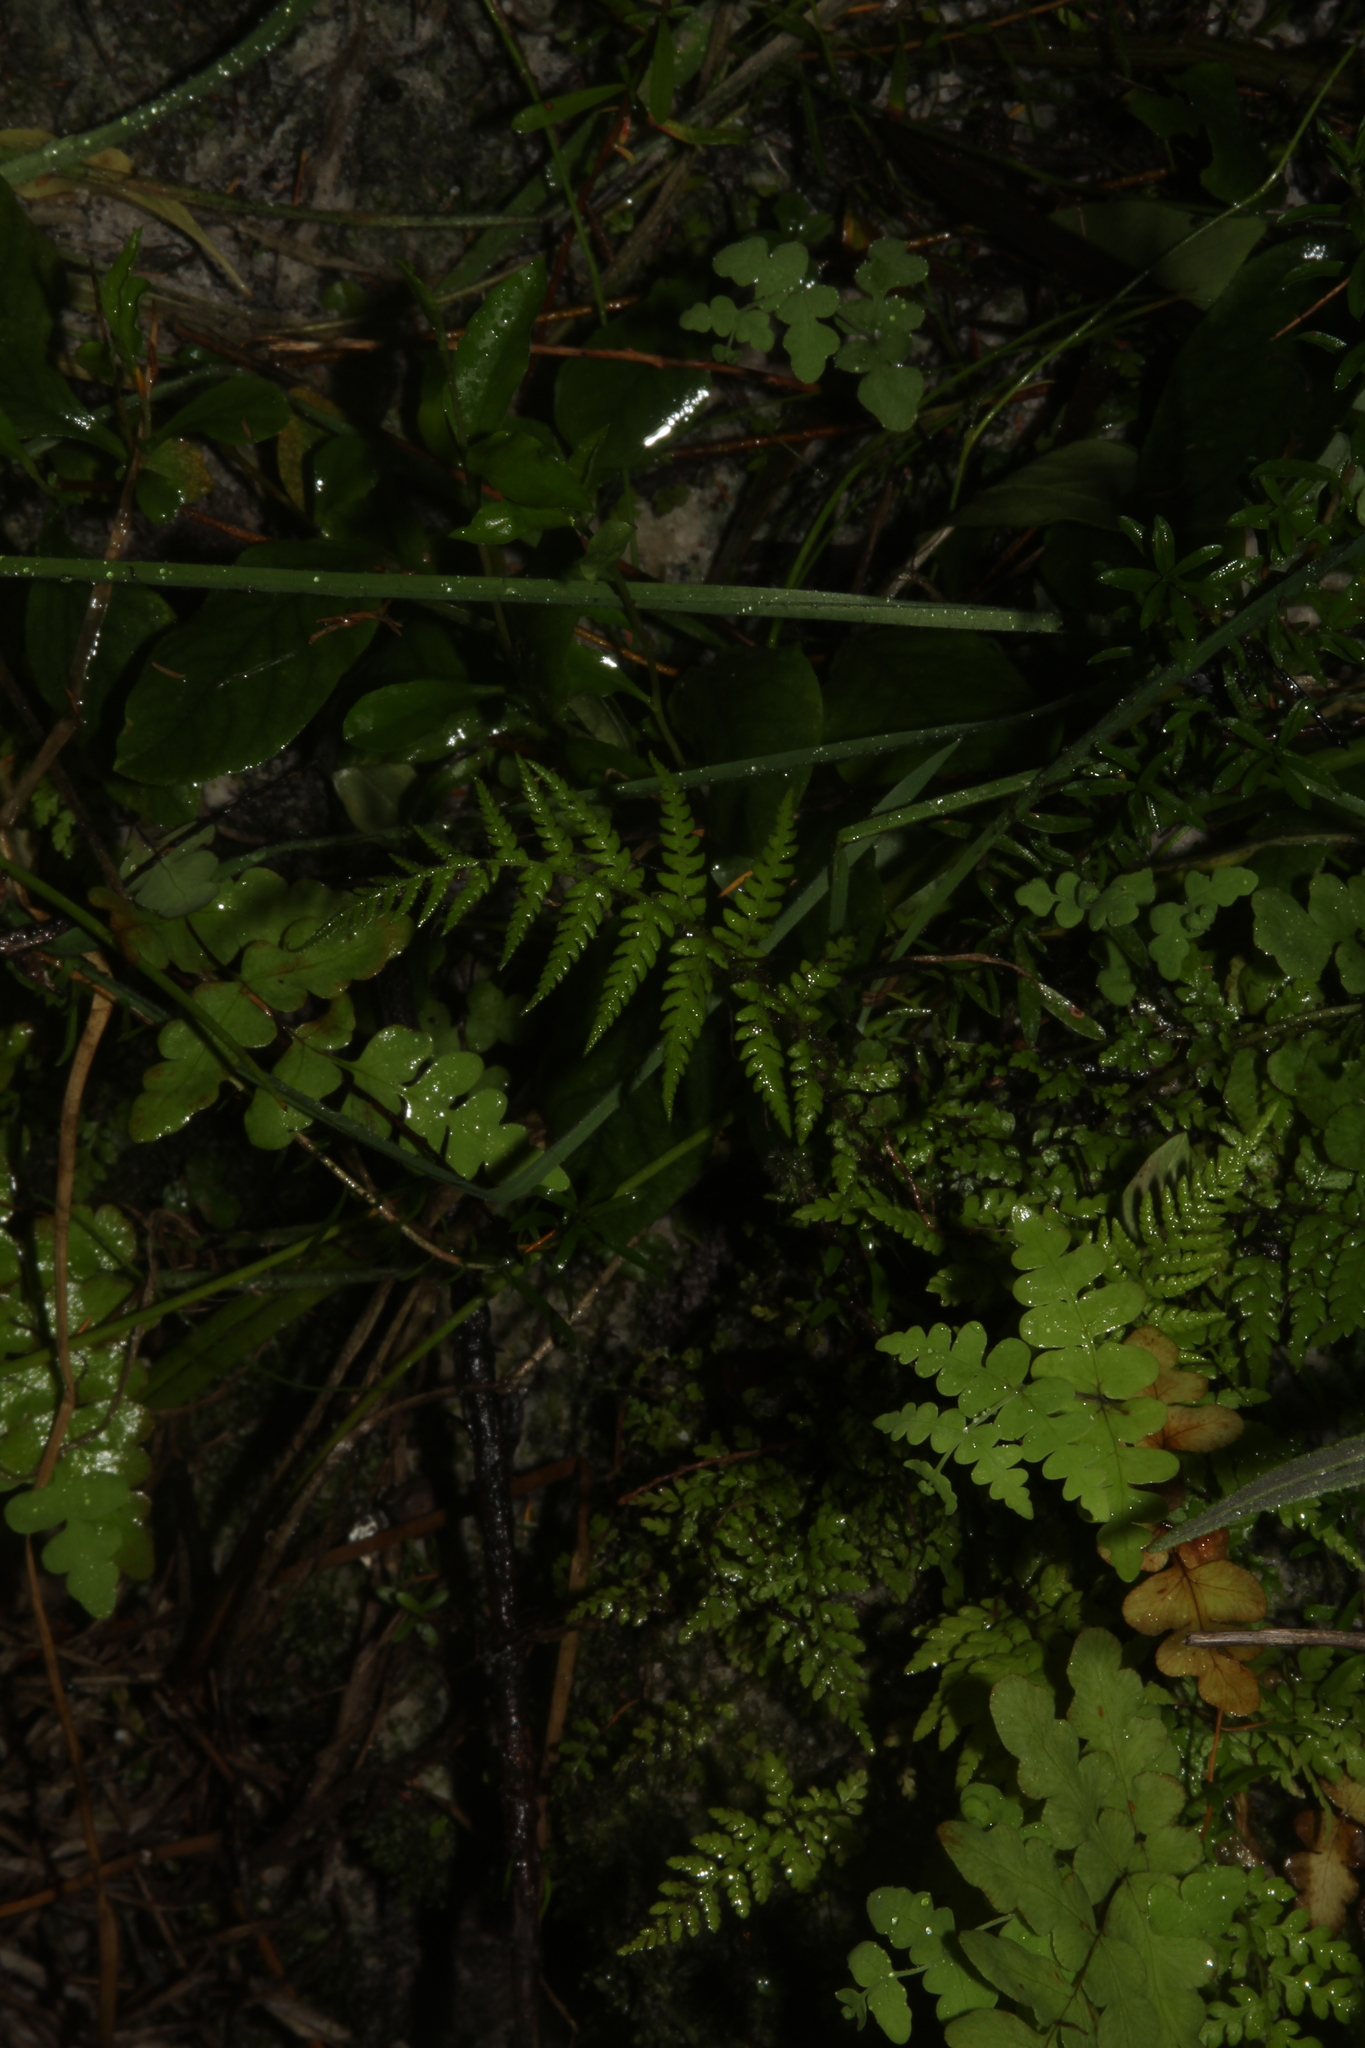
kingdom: Plantae
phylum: Tracheophyta
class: Polypodiopsida
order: Polypodiales
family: Dennstaedtiaceae
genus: Histiopteris
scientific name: Histiopteris incisa
